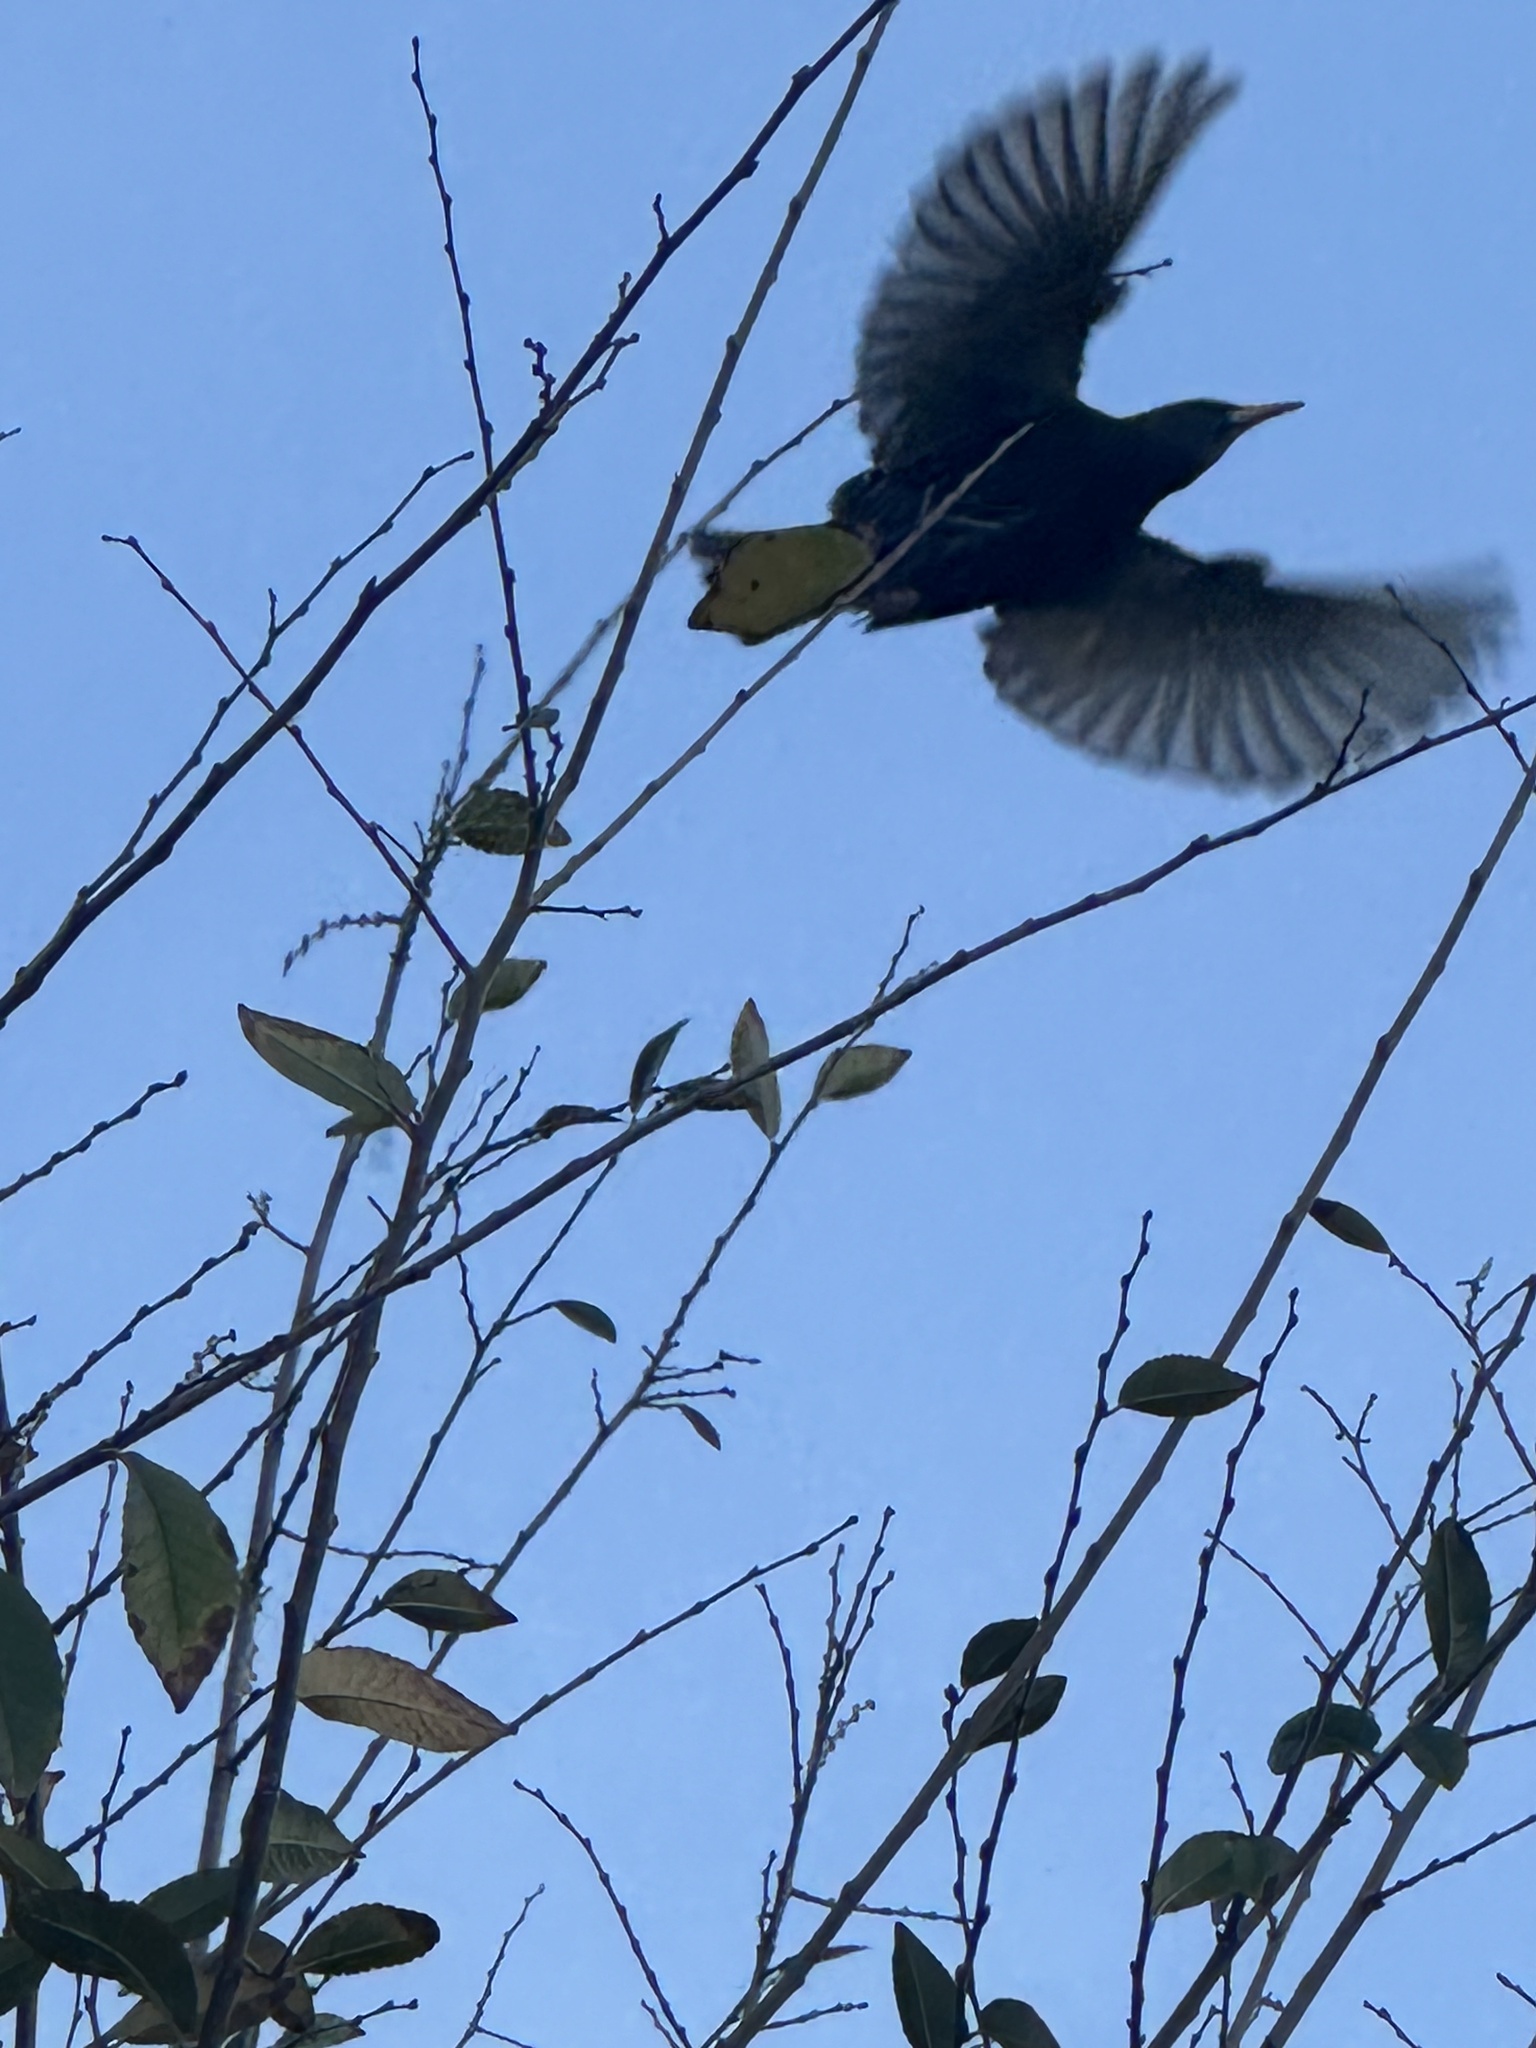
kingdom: Animalia
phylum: Chordata
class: Aves
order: Passeriformes
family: Sturnidae
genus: Sturnus
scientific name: Sturnus vulgaris
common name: Common starling
